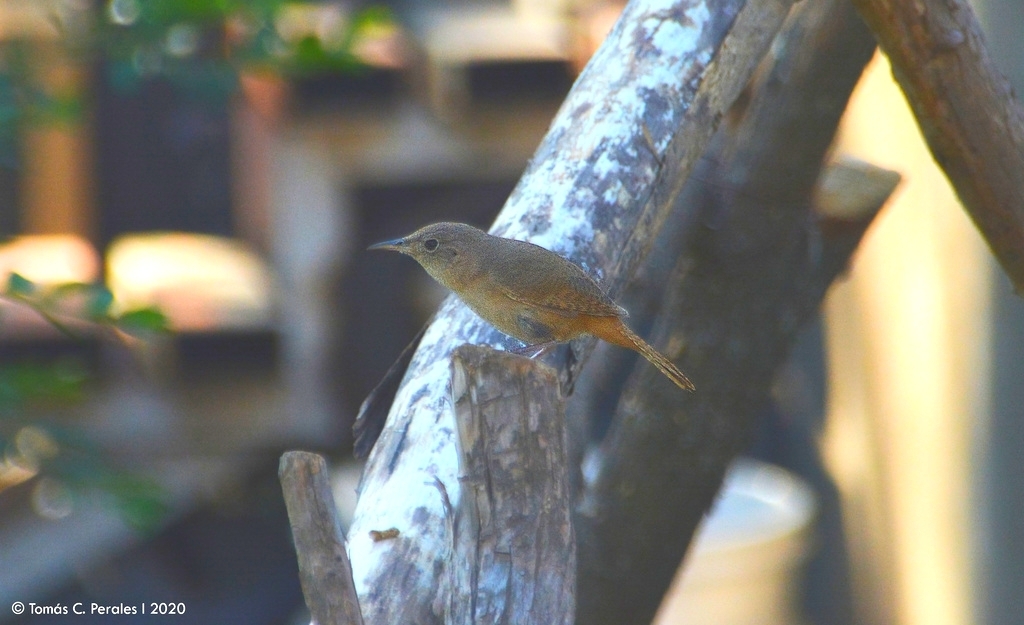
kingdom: Animalia
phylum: Chordata
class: Aves
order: Passeriformes
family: Troglodytidae
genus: Troglodytes
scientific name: Troglodytes aedon
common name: House wren
